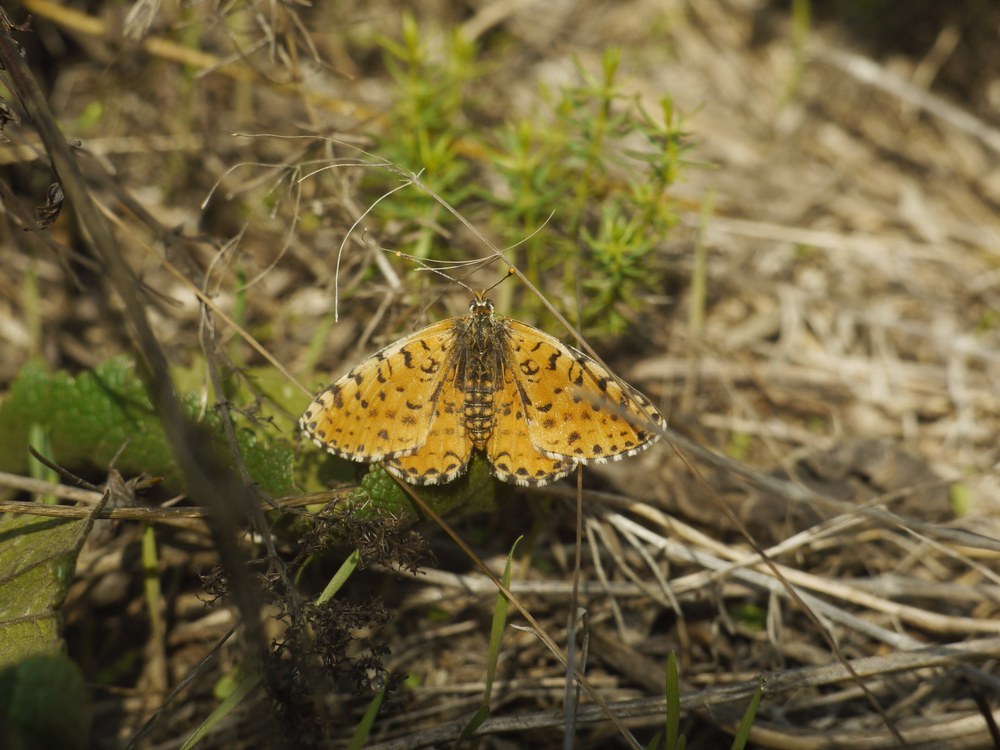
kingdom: Animalia
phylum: Arthropoda
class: Insecta
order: Lepidoptera
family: Nymphalidae
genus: Melitaea
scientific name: Melitaea didyma
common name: Spotted fritillary
